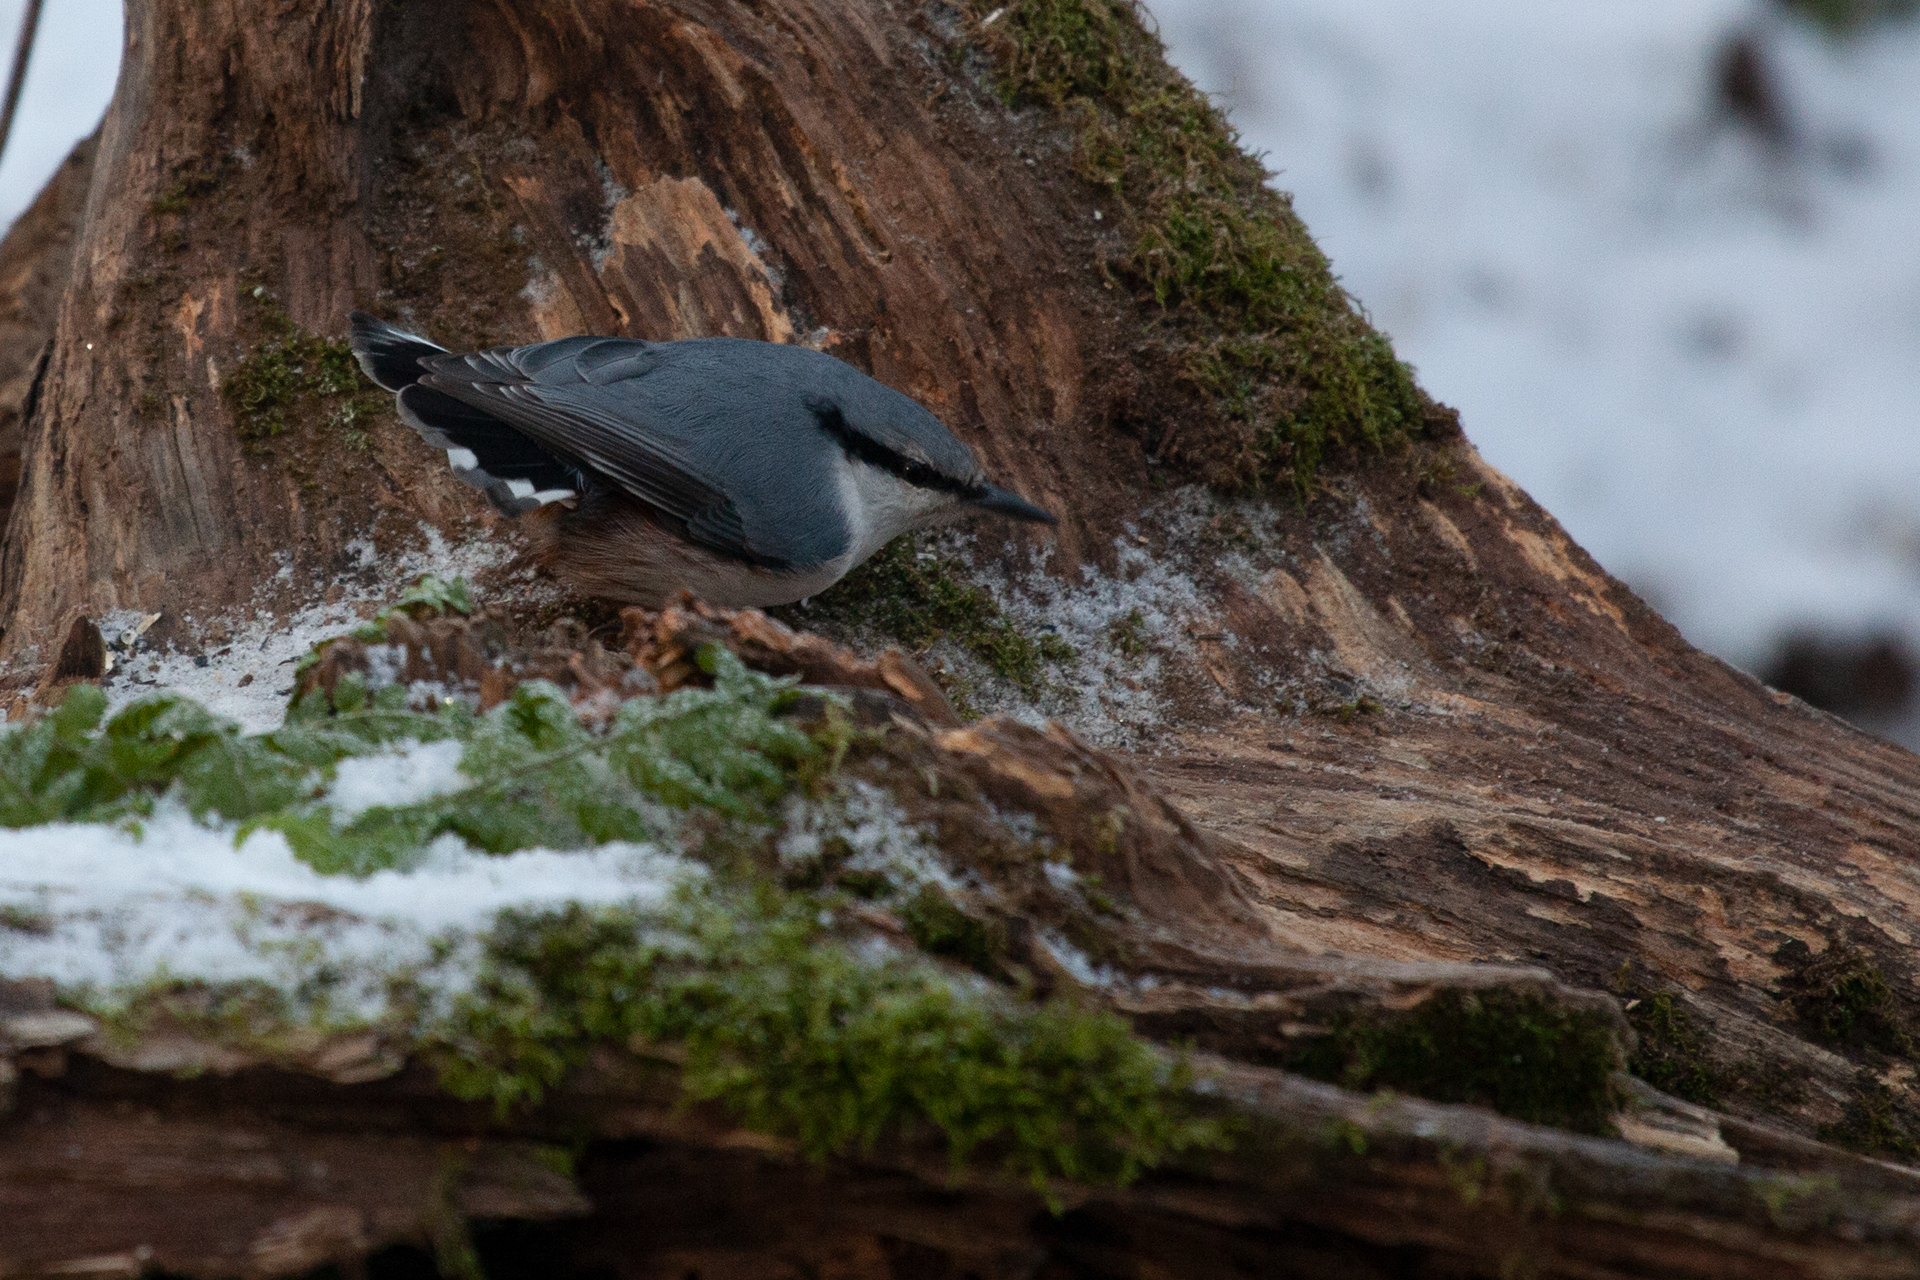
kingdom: Animalia
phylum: Chordata
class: Aves
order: Passeriformes
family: Sittidae
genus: Sitta
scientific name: Sitta europaea
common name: Eurasian nuthatch
